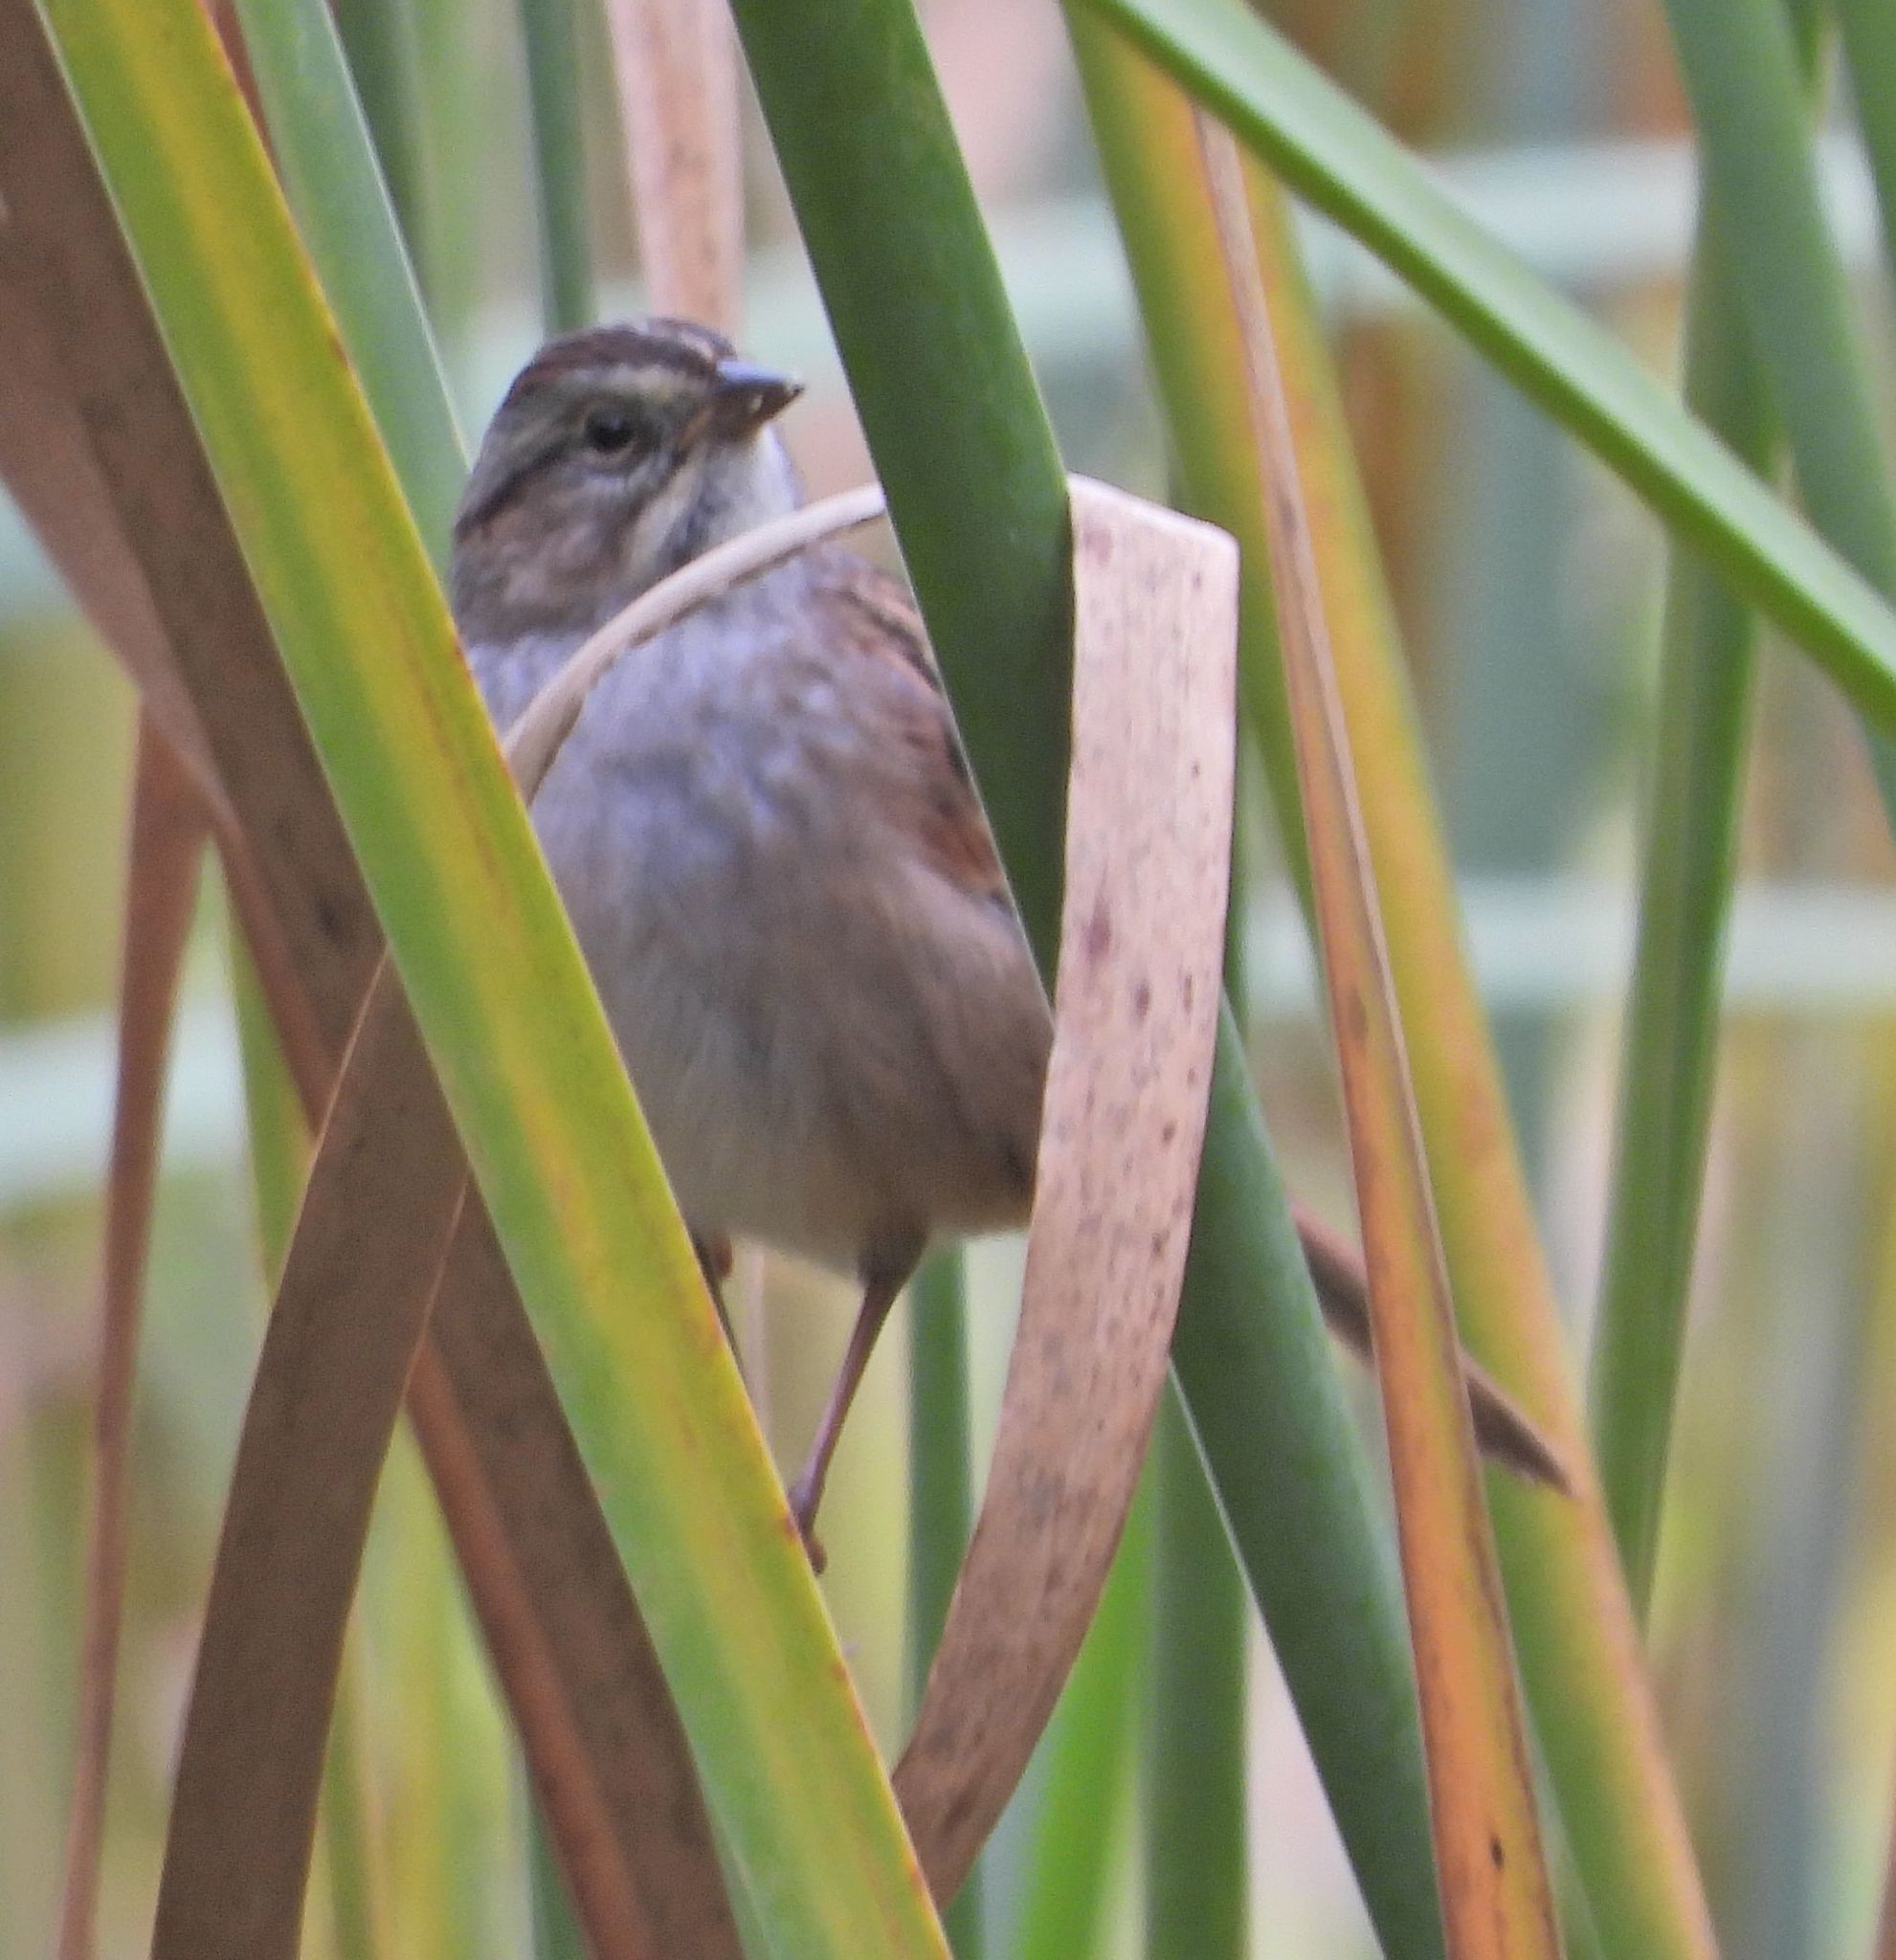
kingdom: Animalia
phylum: Chordata
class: Aves
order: Passeriformes
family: Passerellidae
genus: Melospiza
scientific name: Melospiza georgiana
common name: Swamp sparrow
